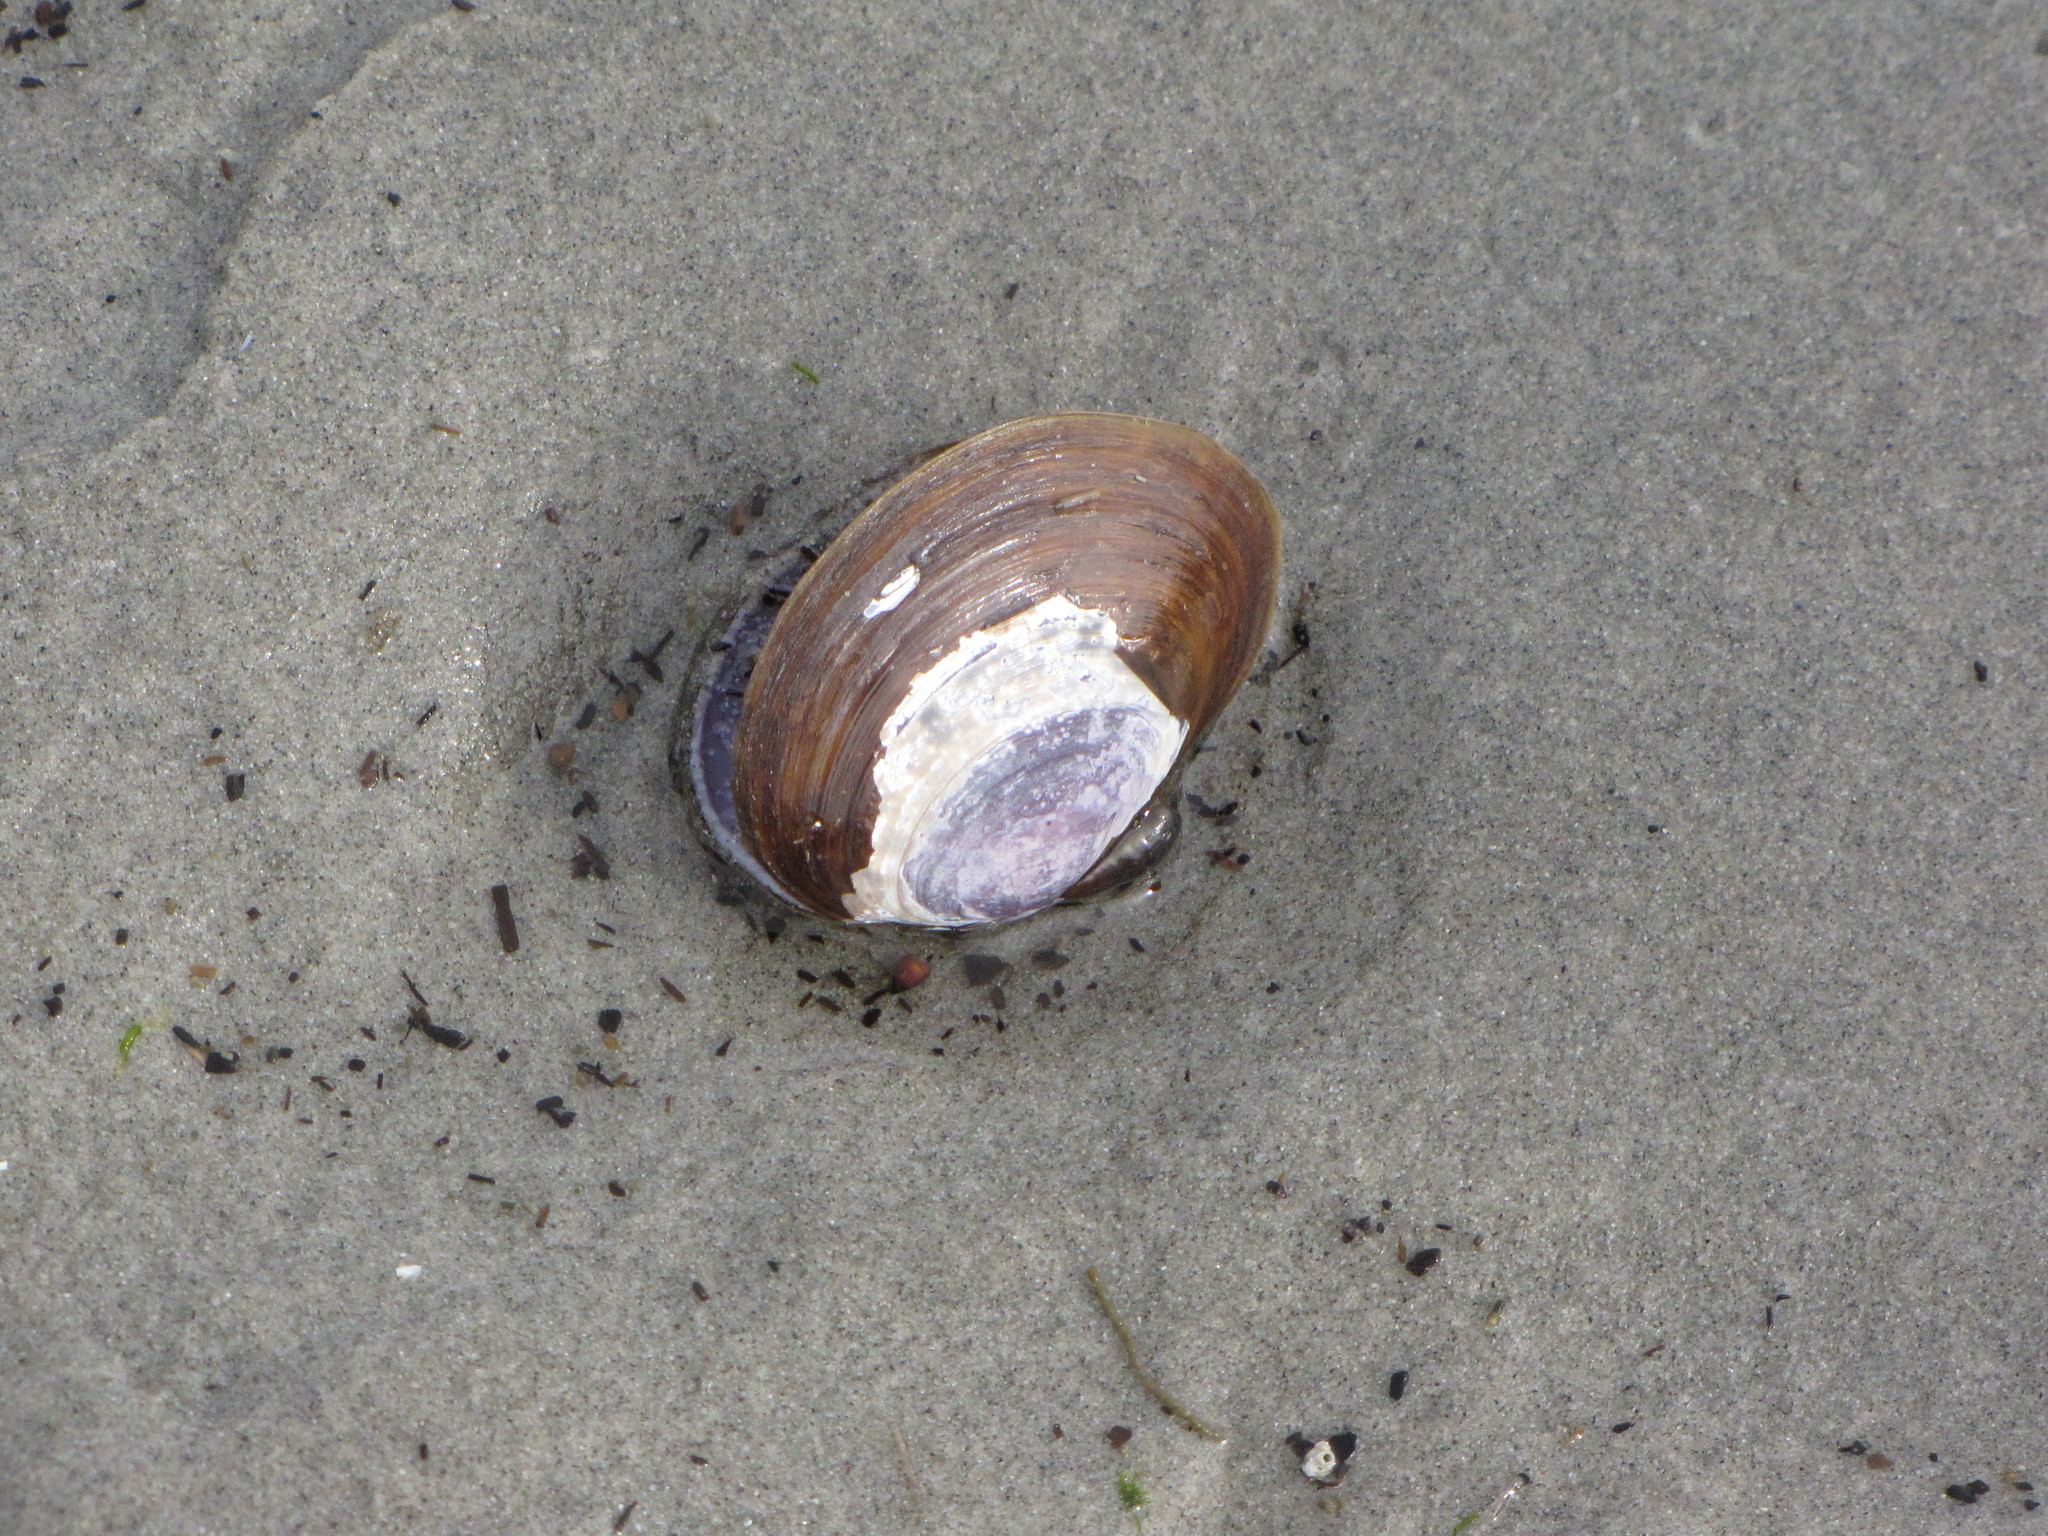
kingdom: Animalia
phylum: Mollusca
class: Bivalvia
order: Cardiida
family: Psammobiidae
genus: Nuttallia
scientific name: Nuttallia obscurata
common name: Purple mahogany-clam
